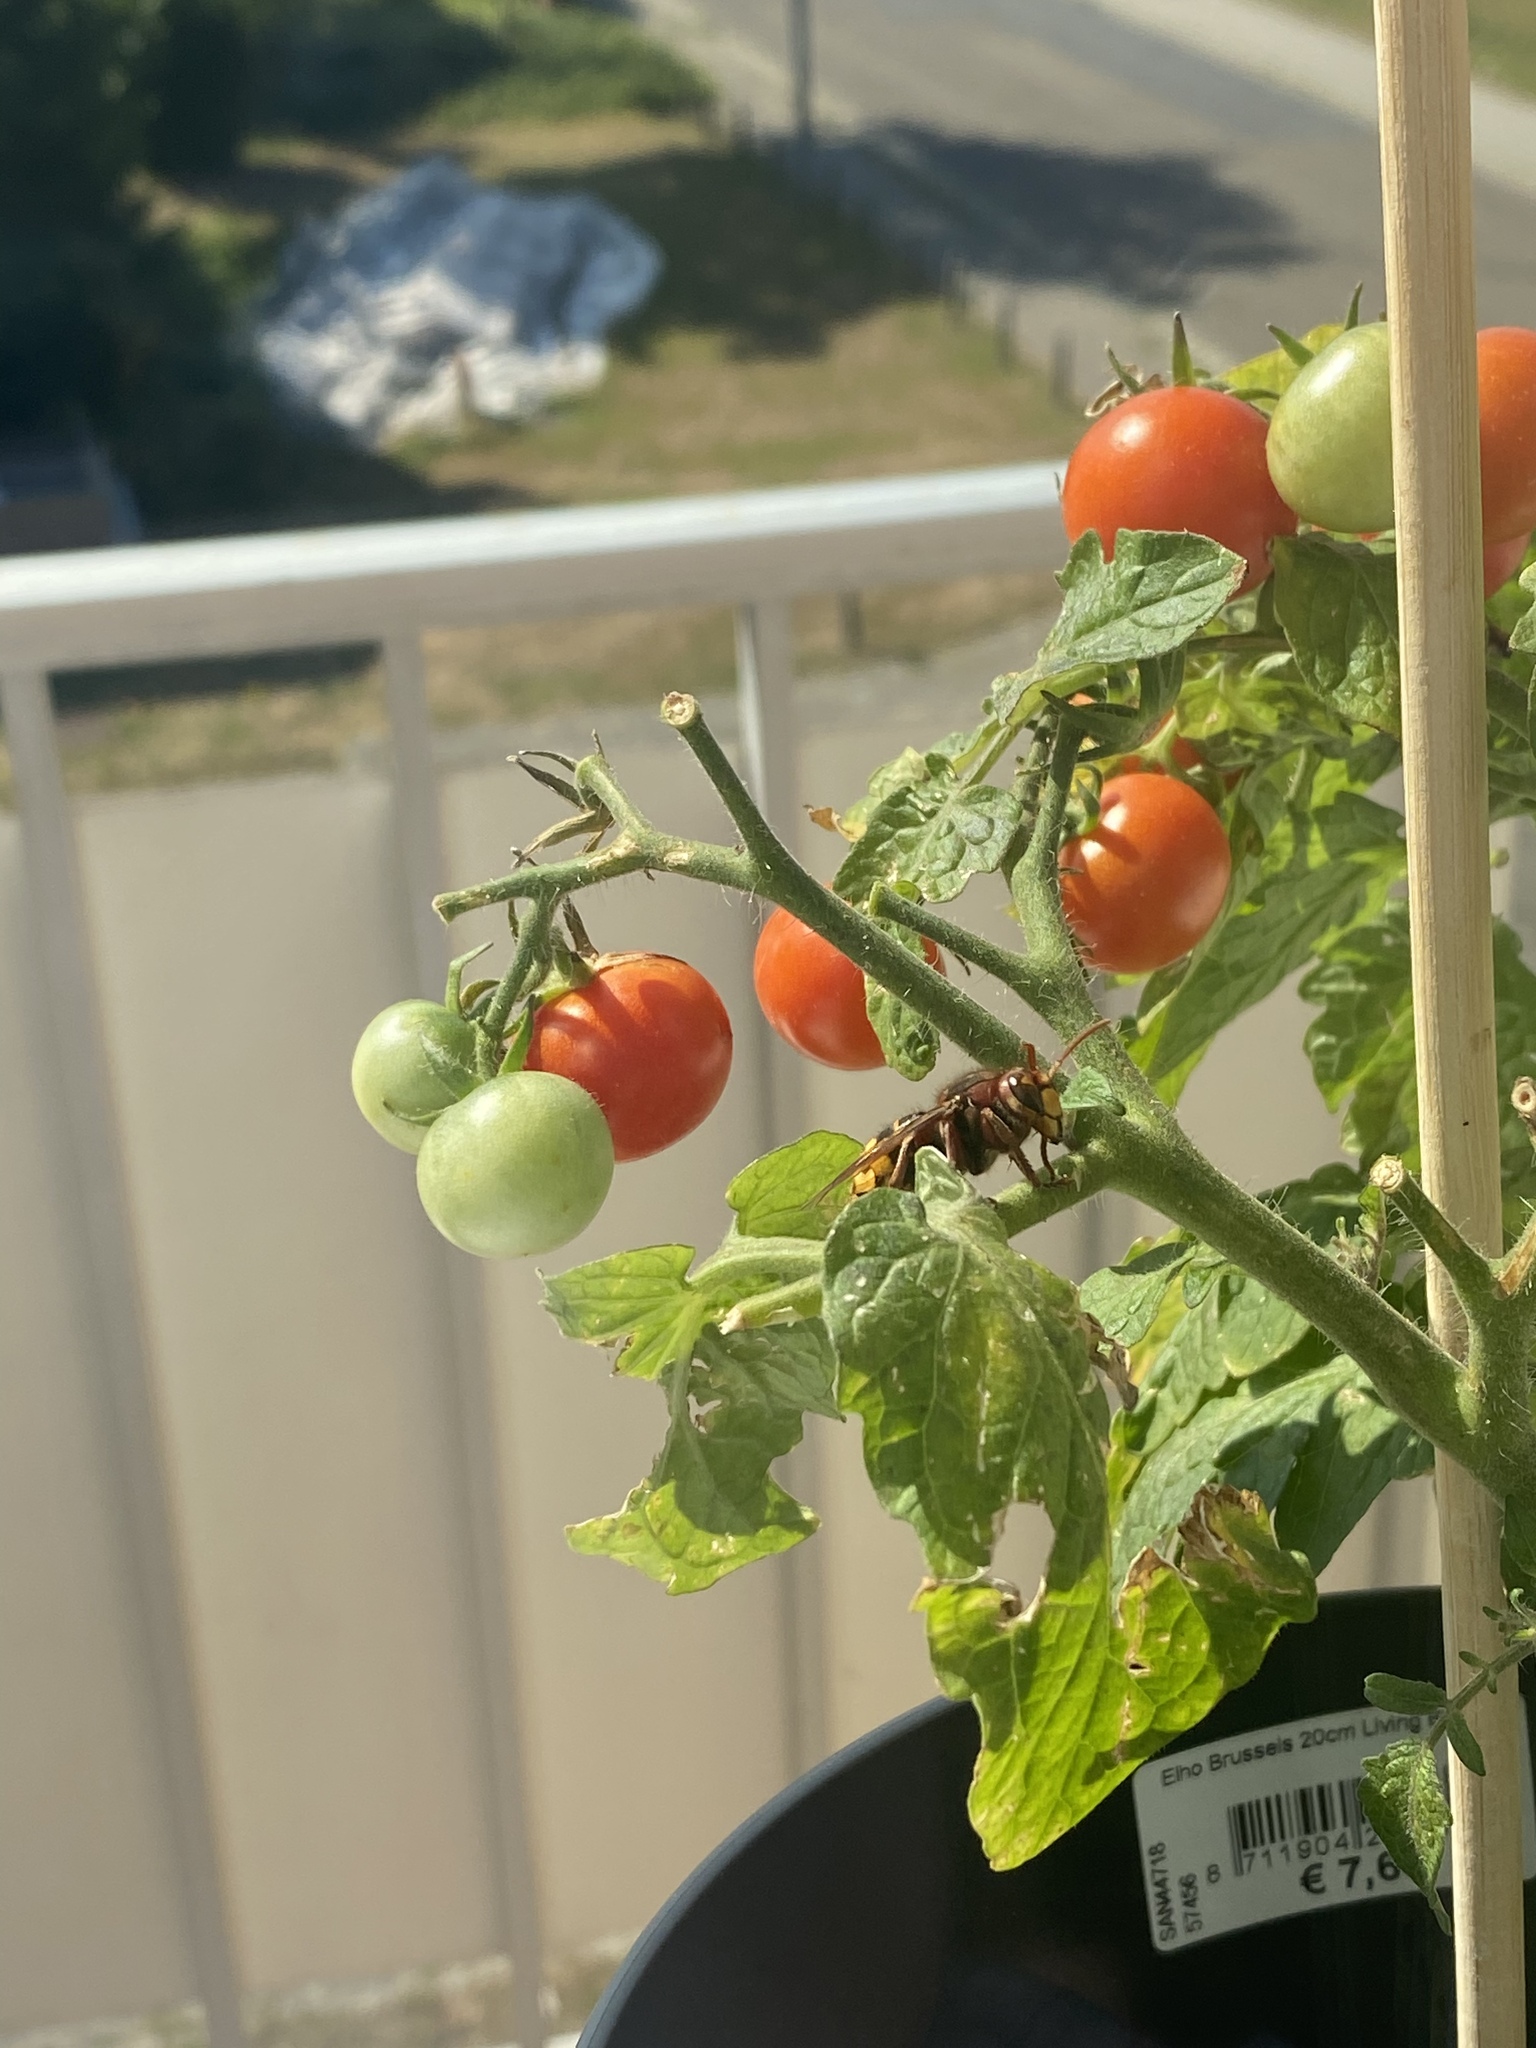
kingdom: Animalia
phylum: Arthropoda
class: Insecta
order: Hymenoptera
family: Vespidae
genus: Vespa
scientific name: Vespa crabro
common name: Hornet
